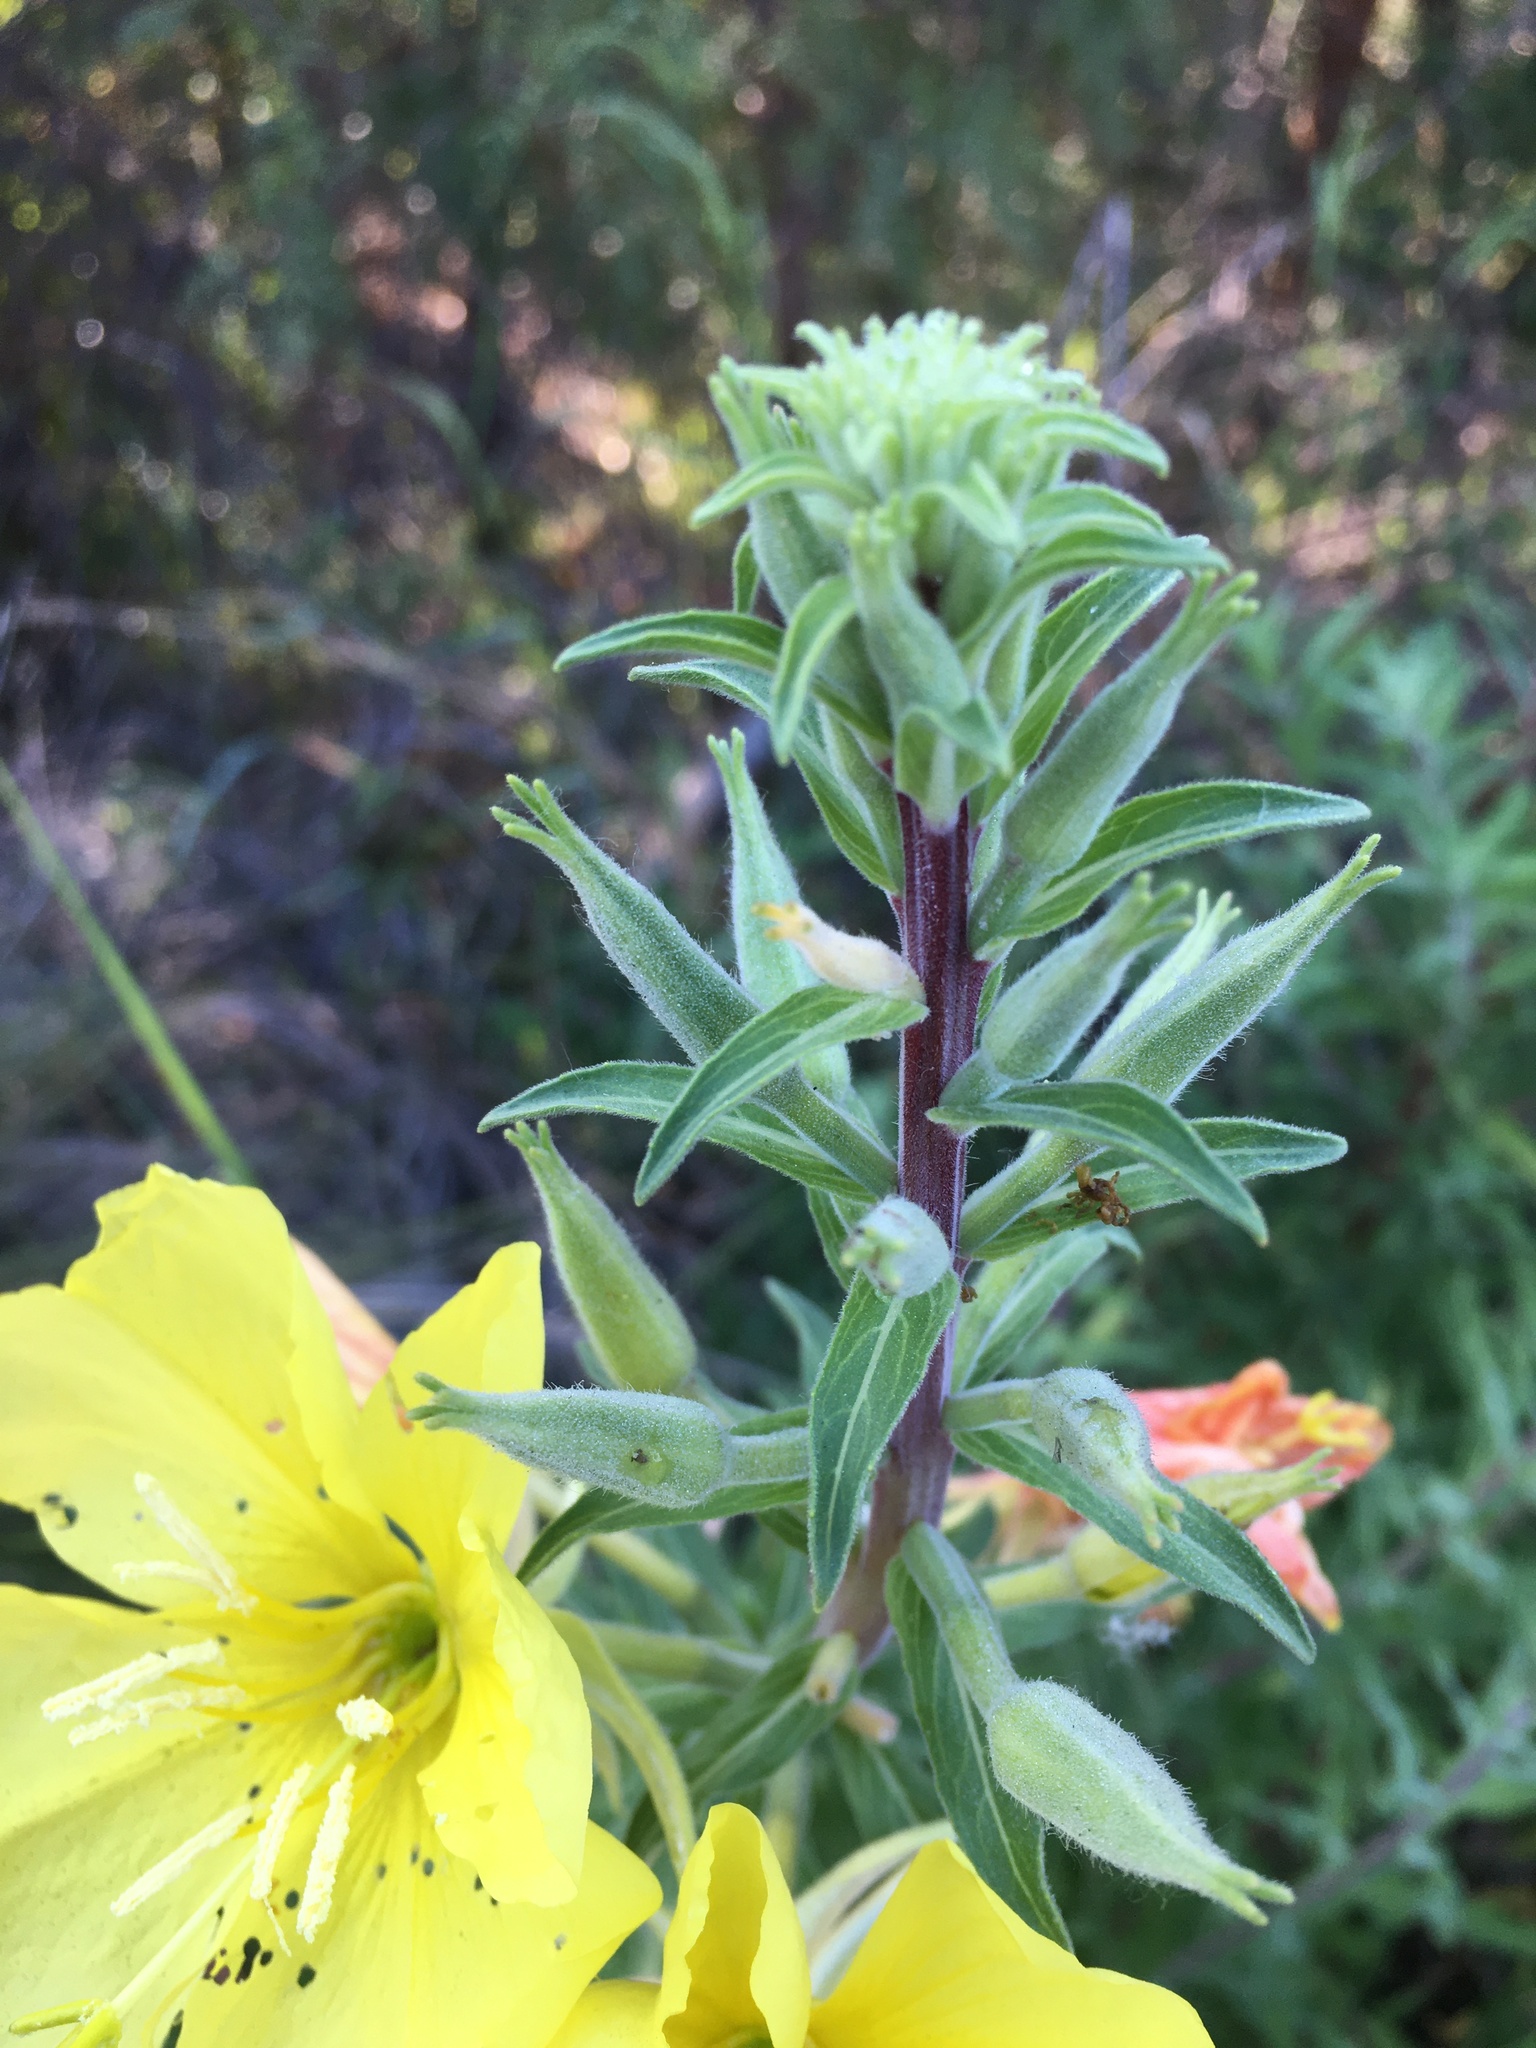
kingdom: Plantae
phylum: Tracheophyta
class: Magnoliopsida
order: Myrtales
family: Onagraceae
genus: Oenothera
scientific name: Oenothera elata
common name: Hooker's evening-primrose
